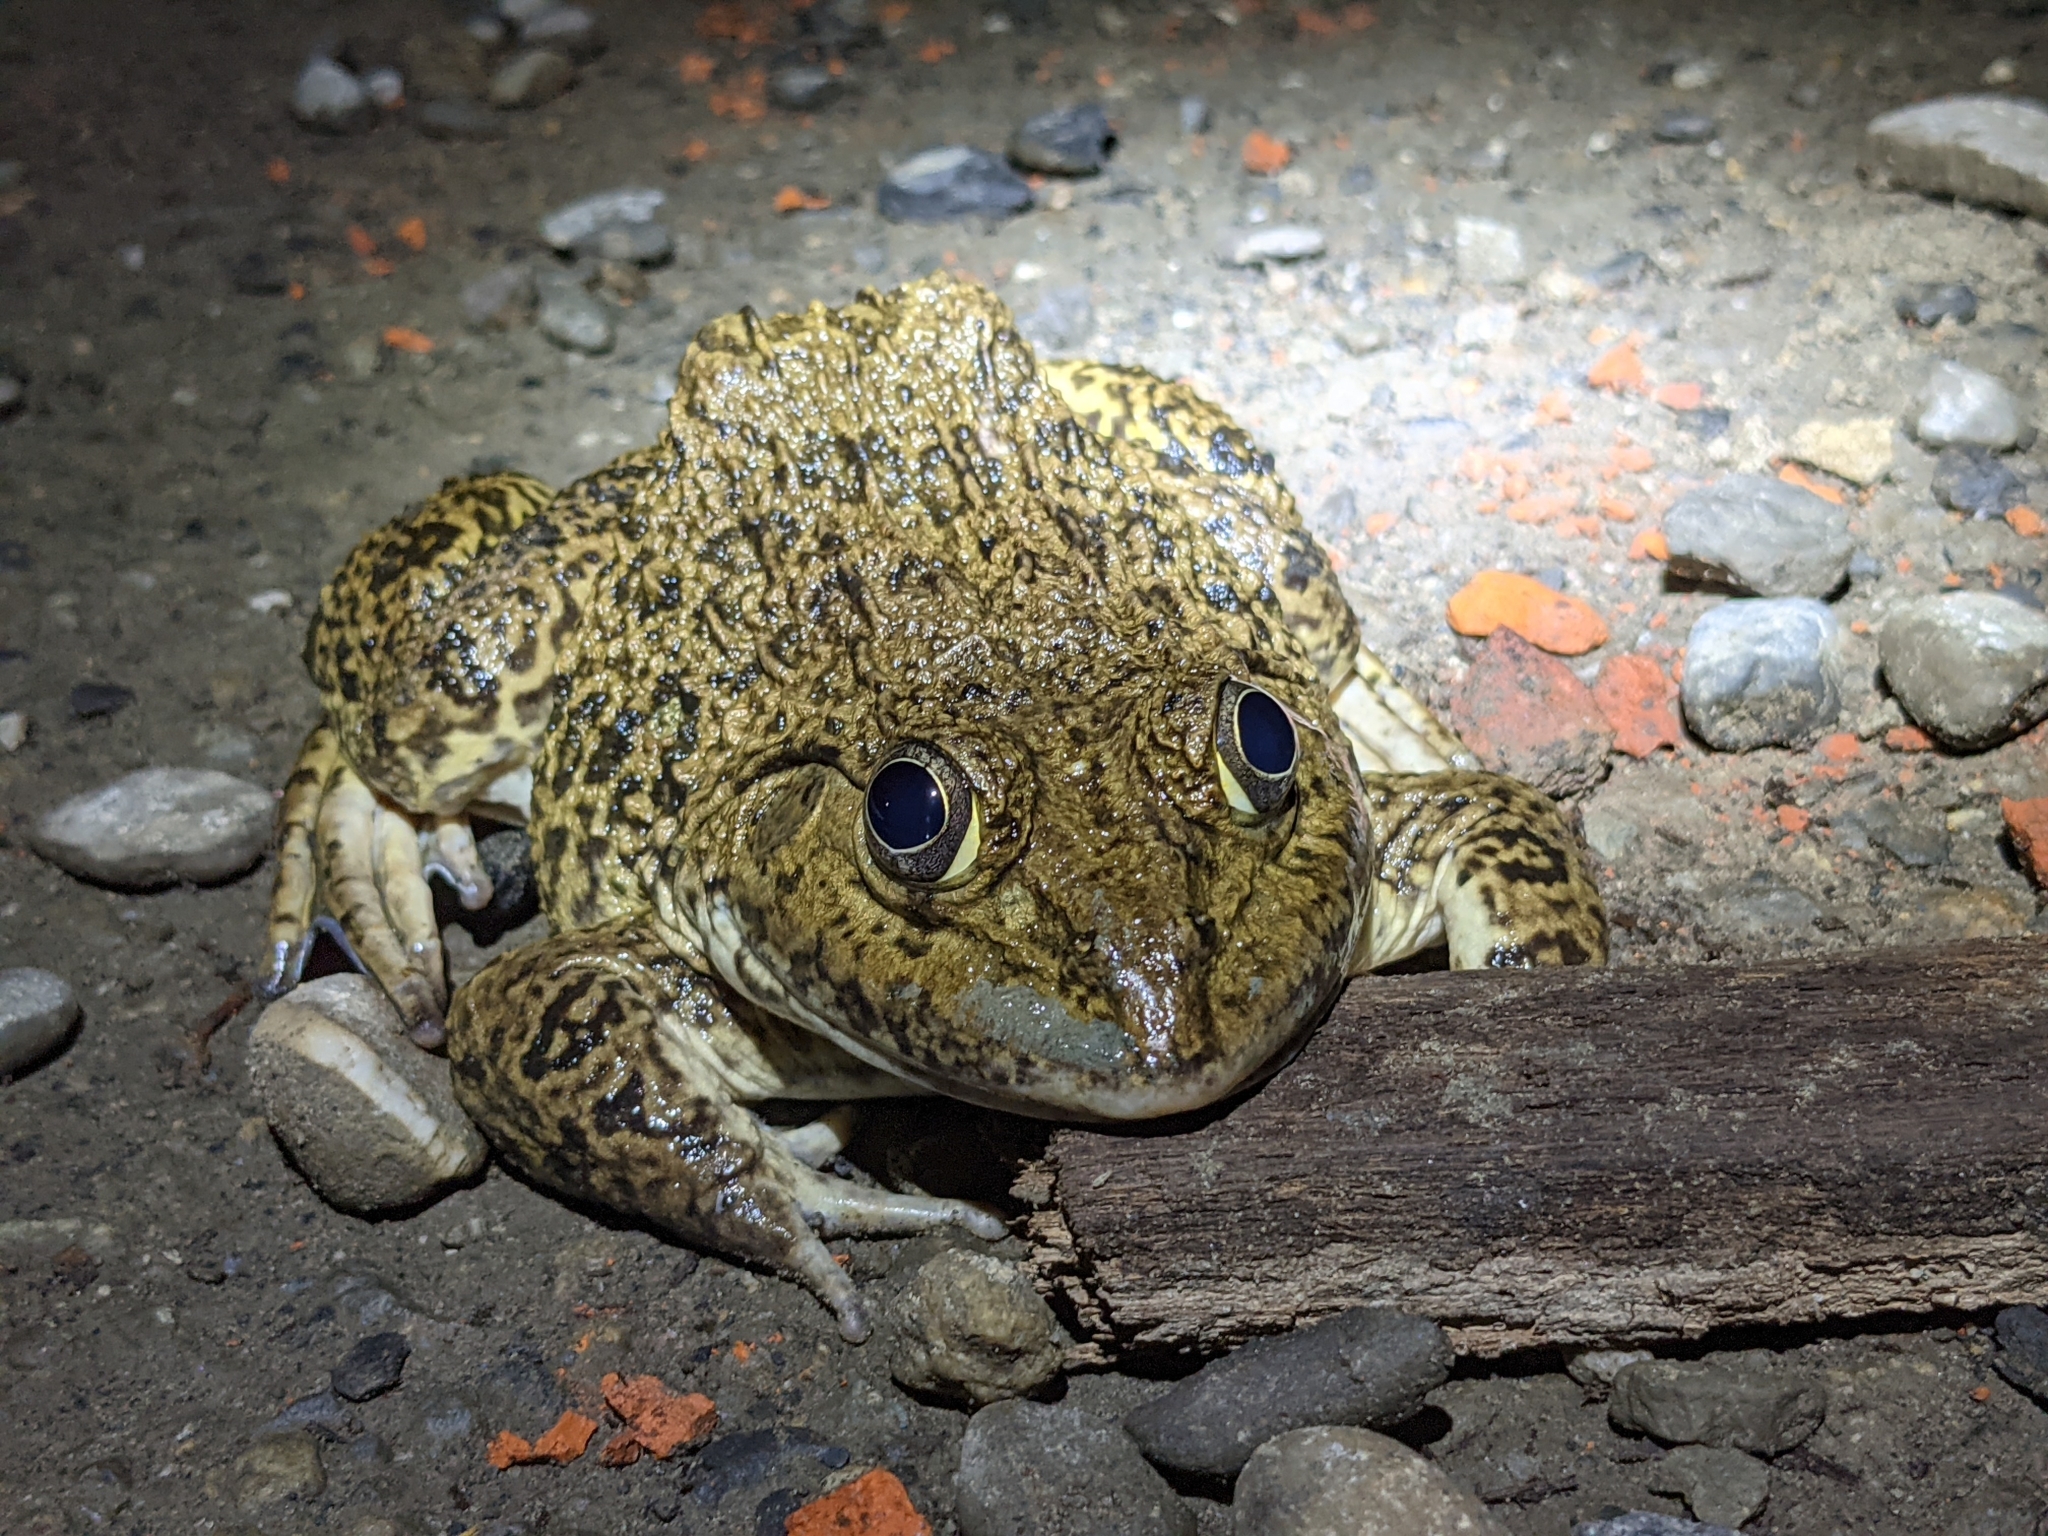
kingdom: Animalia
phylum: Chordata
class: Amphibia
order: Anura
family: Dicroglossidae
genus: Hoplobatrachus
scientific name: Hoplobatrachus rugulosus
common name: Chinese edible frog
